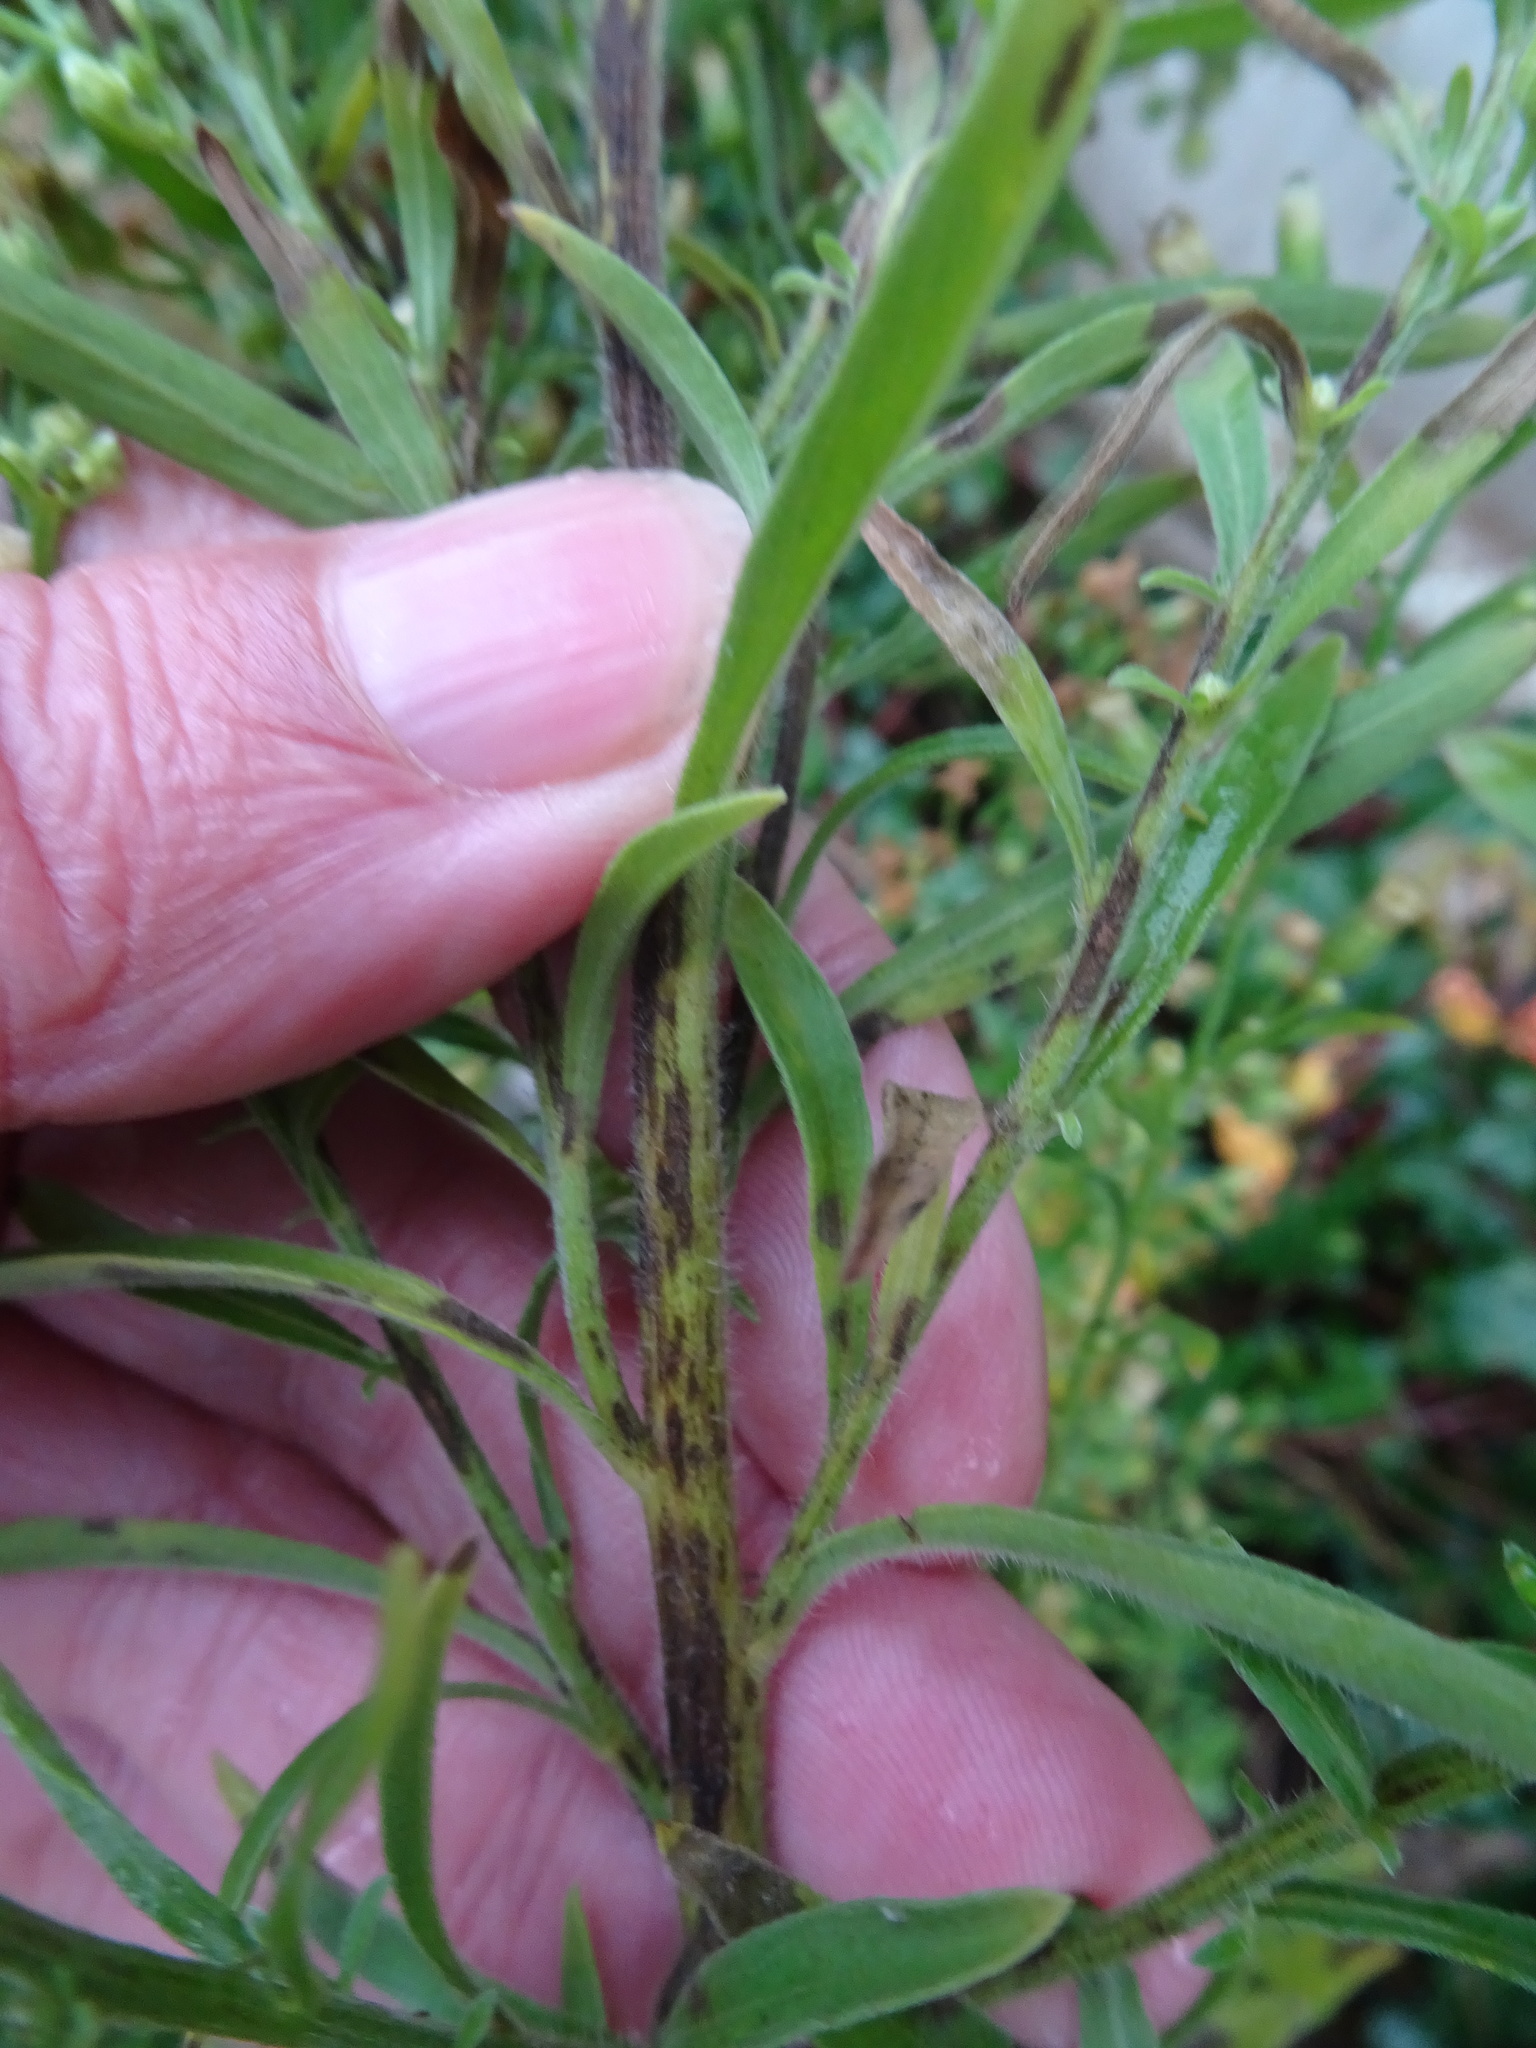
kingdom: Plantae
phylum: Tracheophyta
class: Magnoliopsida
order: Asterales
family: Asteraceae
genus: Erigeron
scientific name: Erigeron sumatrensis
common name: Daisy
